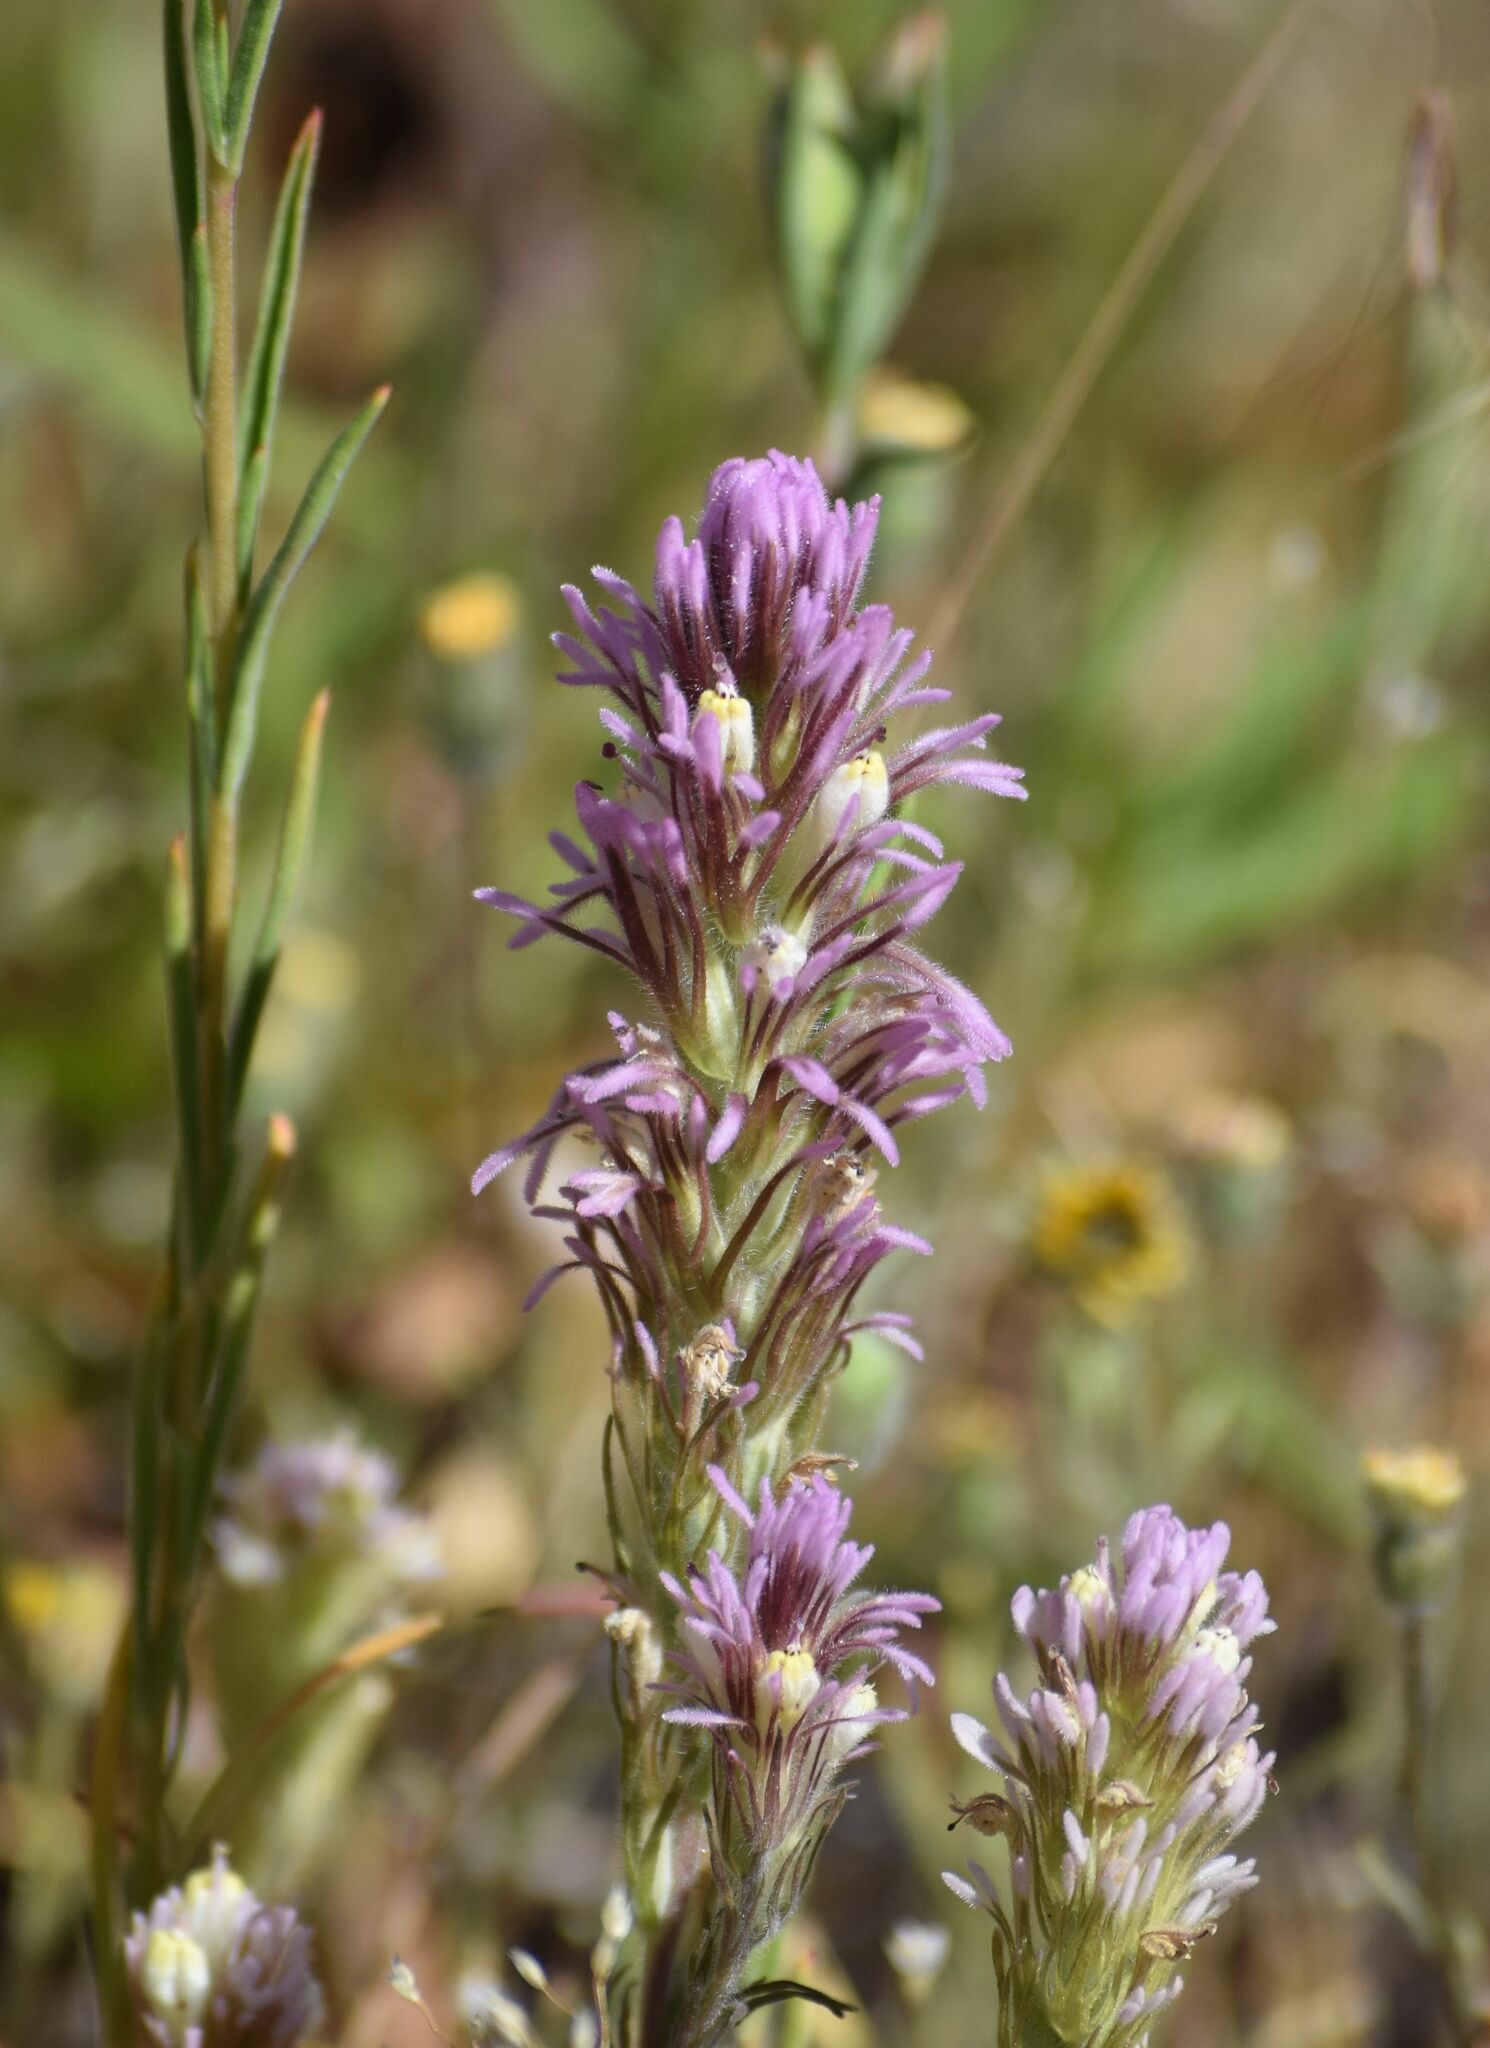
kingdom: Plantae
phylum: Tracheophyta
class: Magnoliopsida
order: Lamiales
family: Orobanchaceae
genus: Castilleja
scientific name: Castilleja lineariloba
